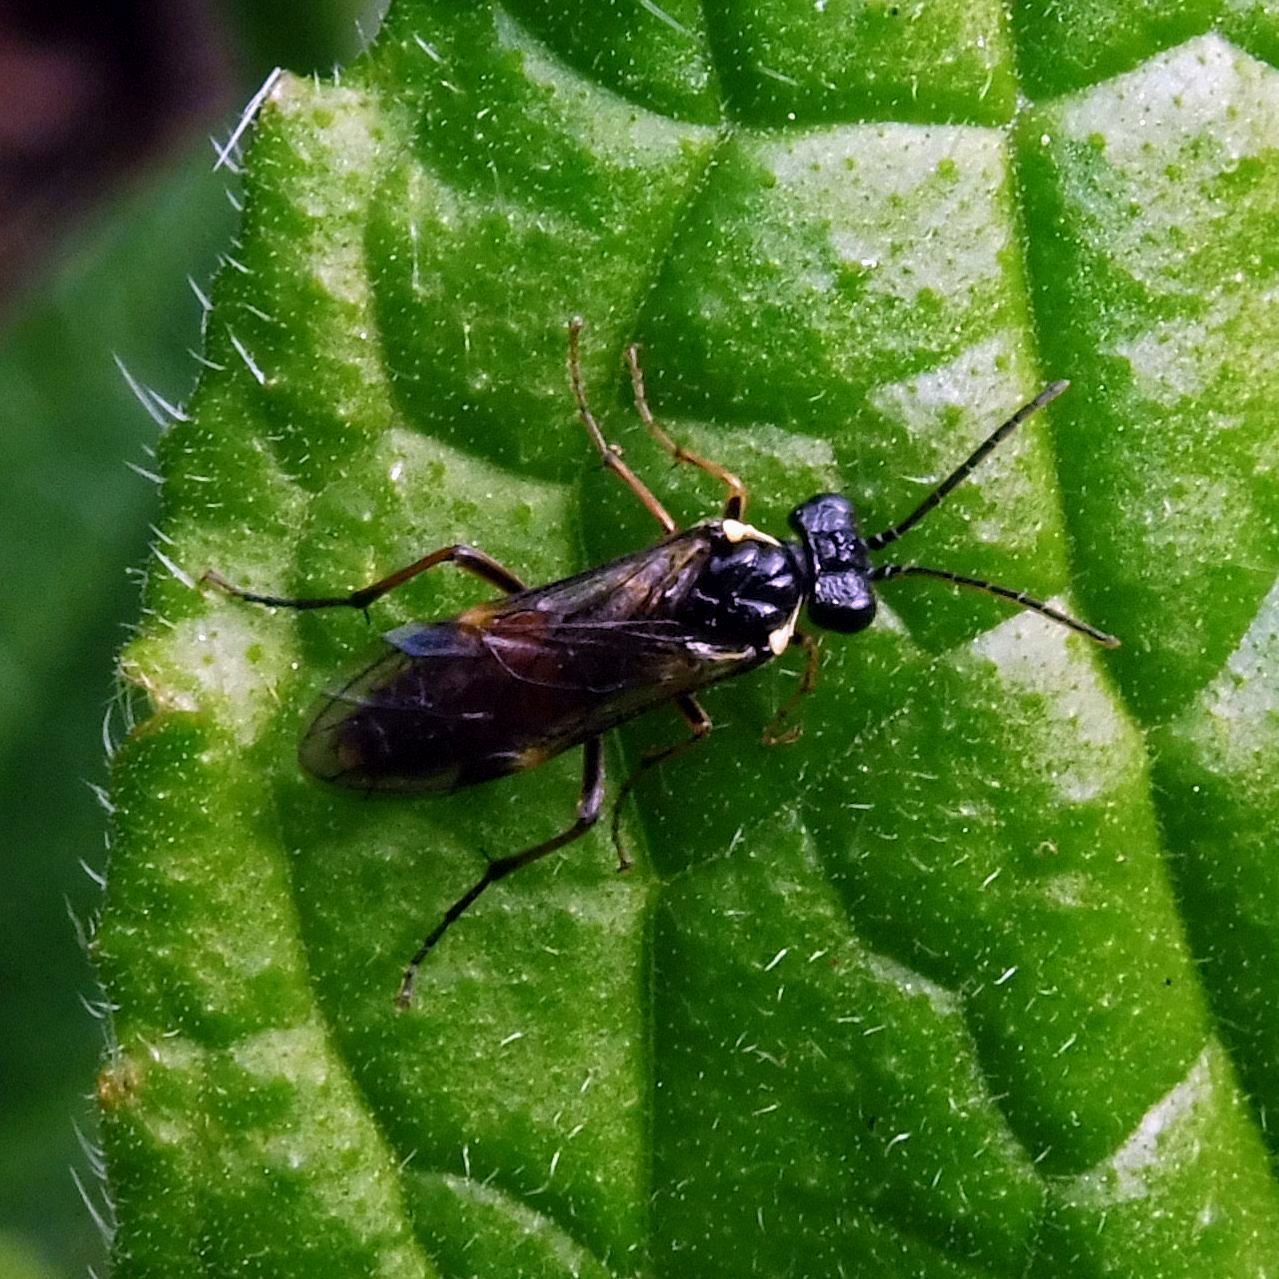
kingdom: Animalia
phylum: Arthropoda
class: Insecta
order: Hymenoptera
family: Tenthredinidae
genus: Aglaostigma
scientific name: Aglaostigma aucupariae
